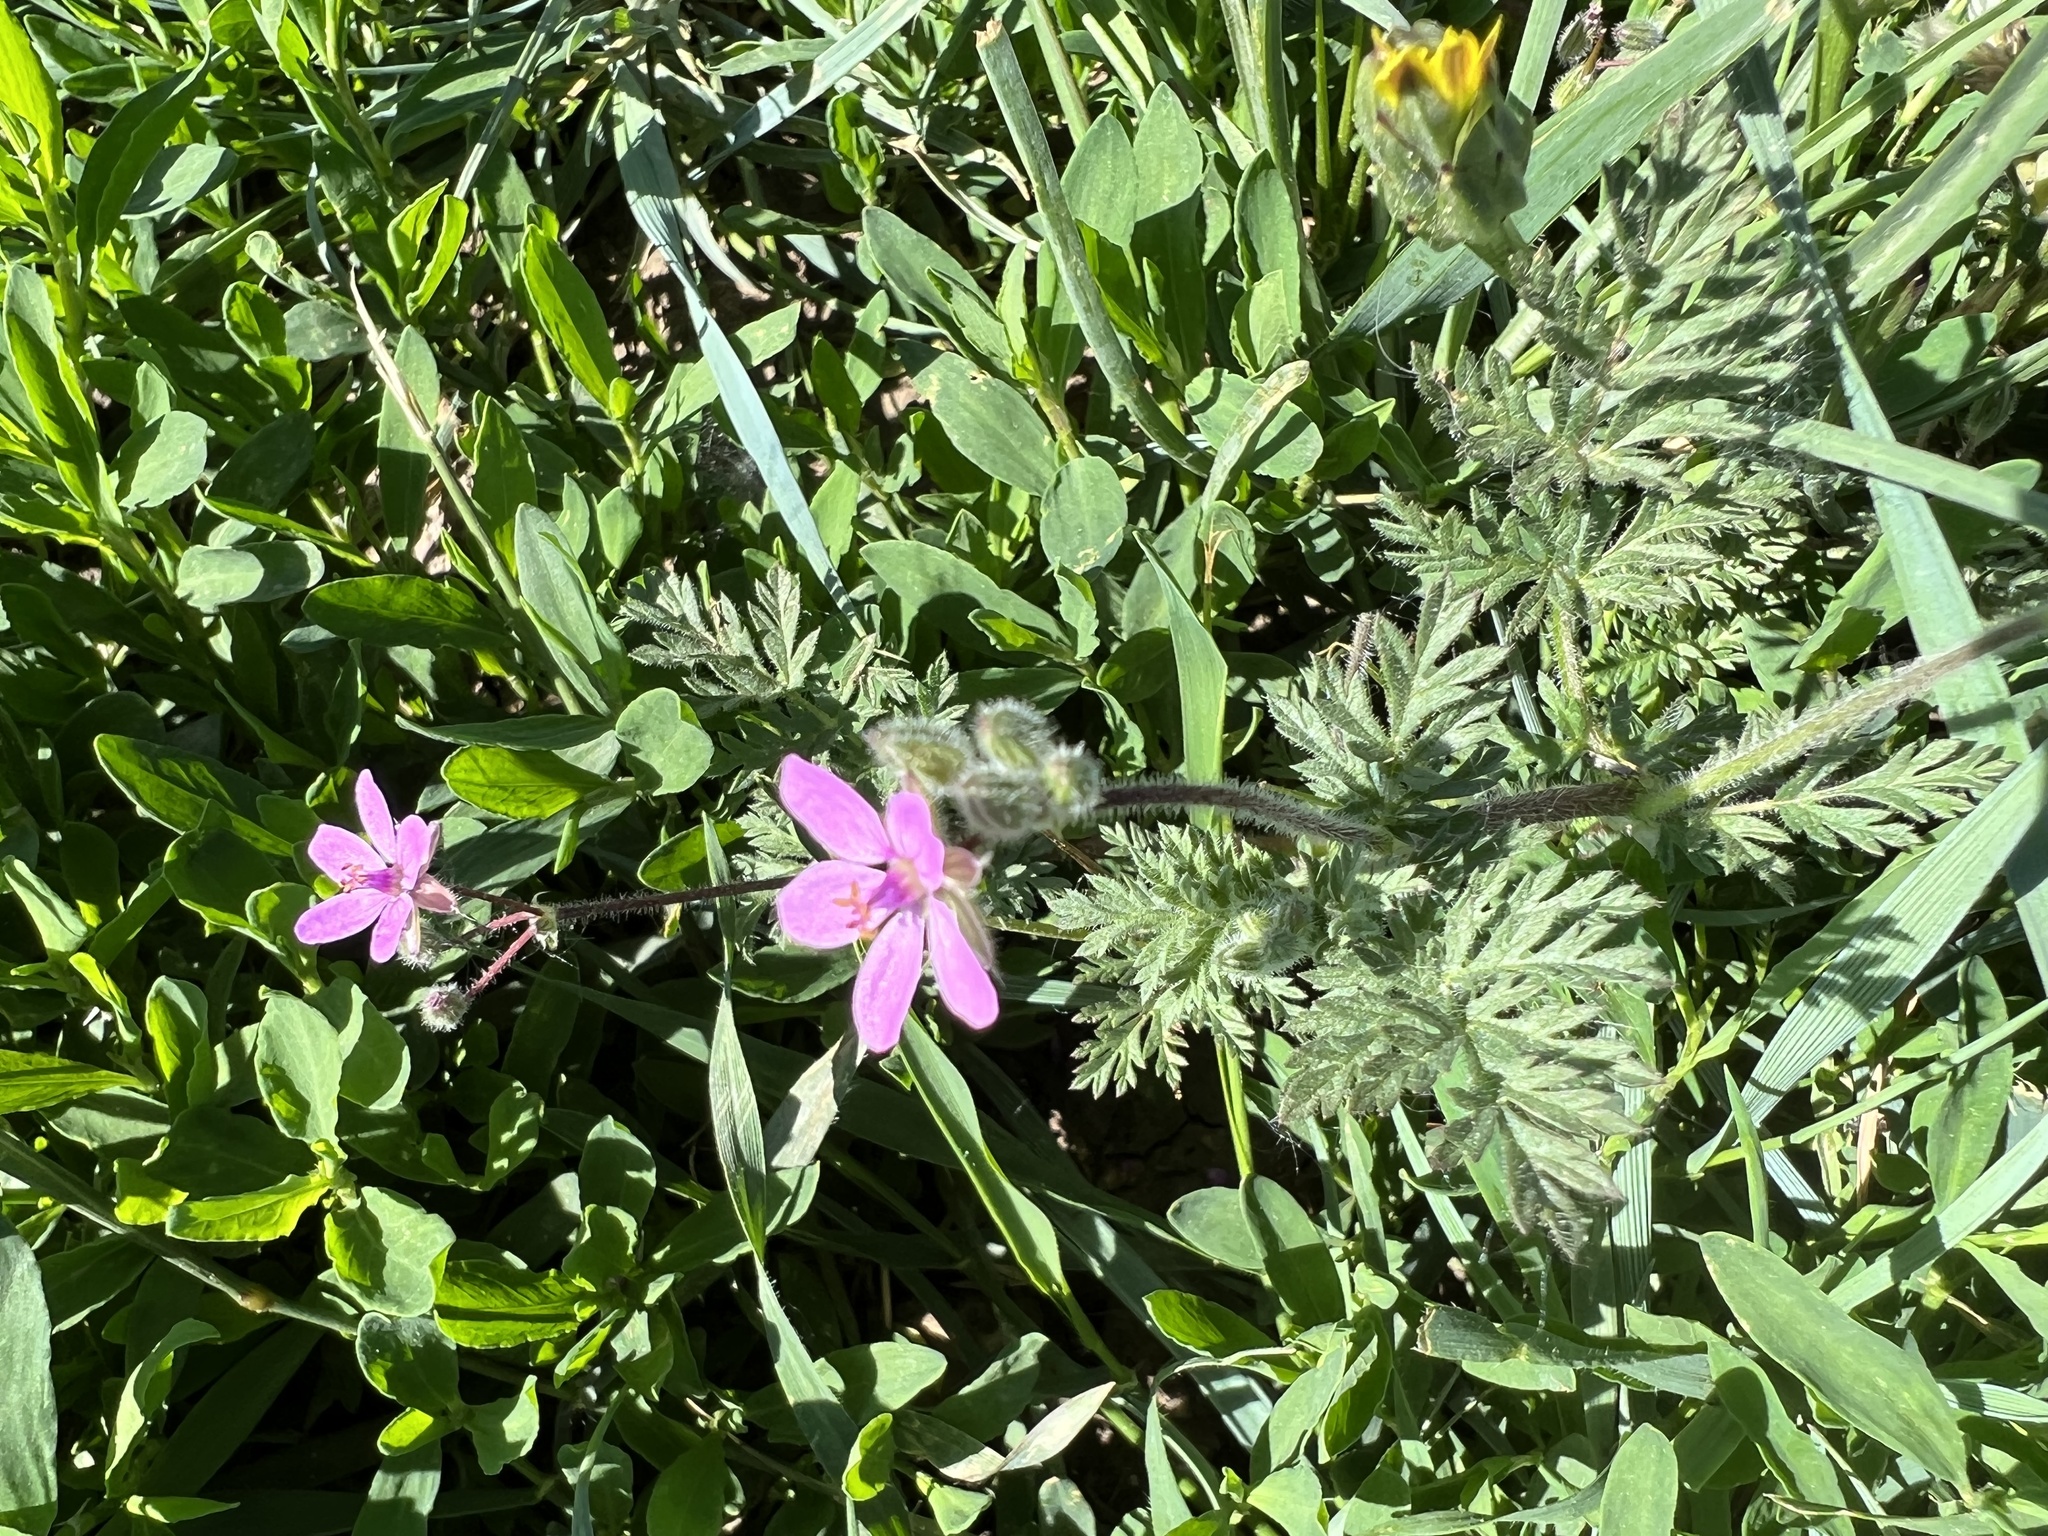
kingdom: Plantae
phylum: Tracheophyta
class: Magnoliopsida
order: Geraniales
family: Geraniaceae
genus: Erodium
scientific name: Erodium cicutarium
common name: Common stork's-bill
